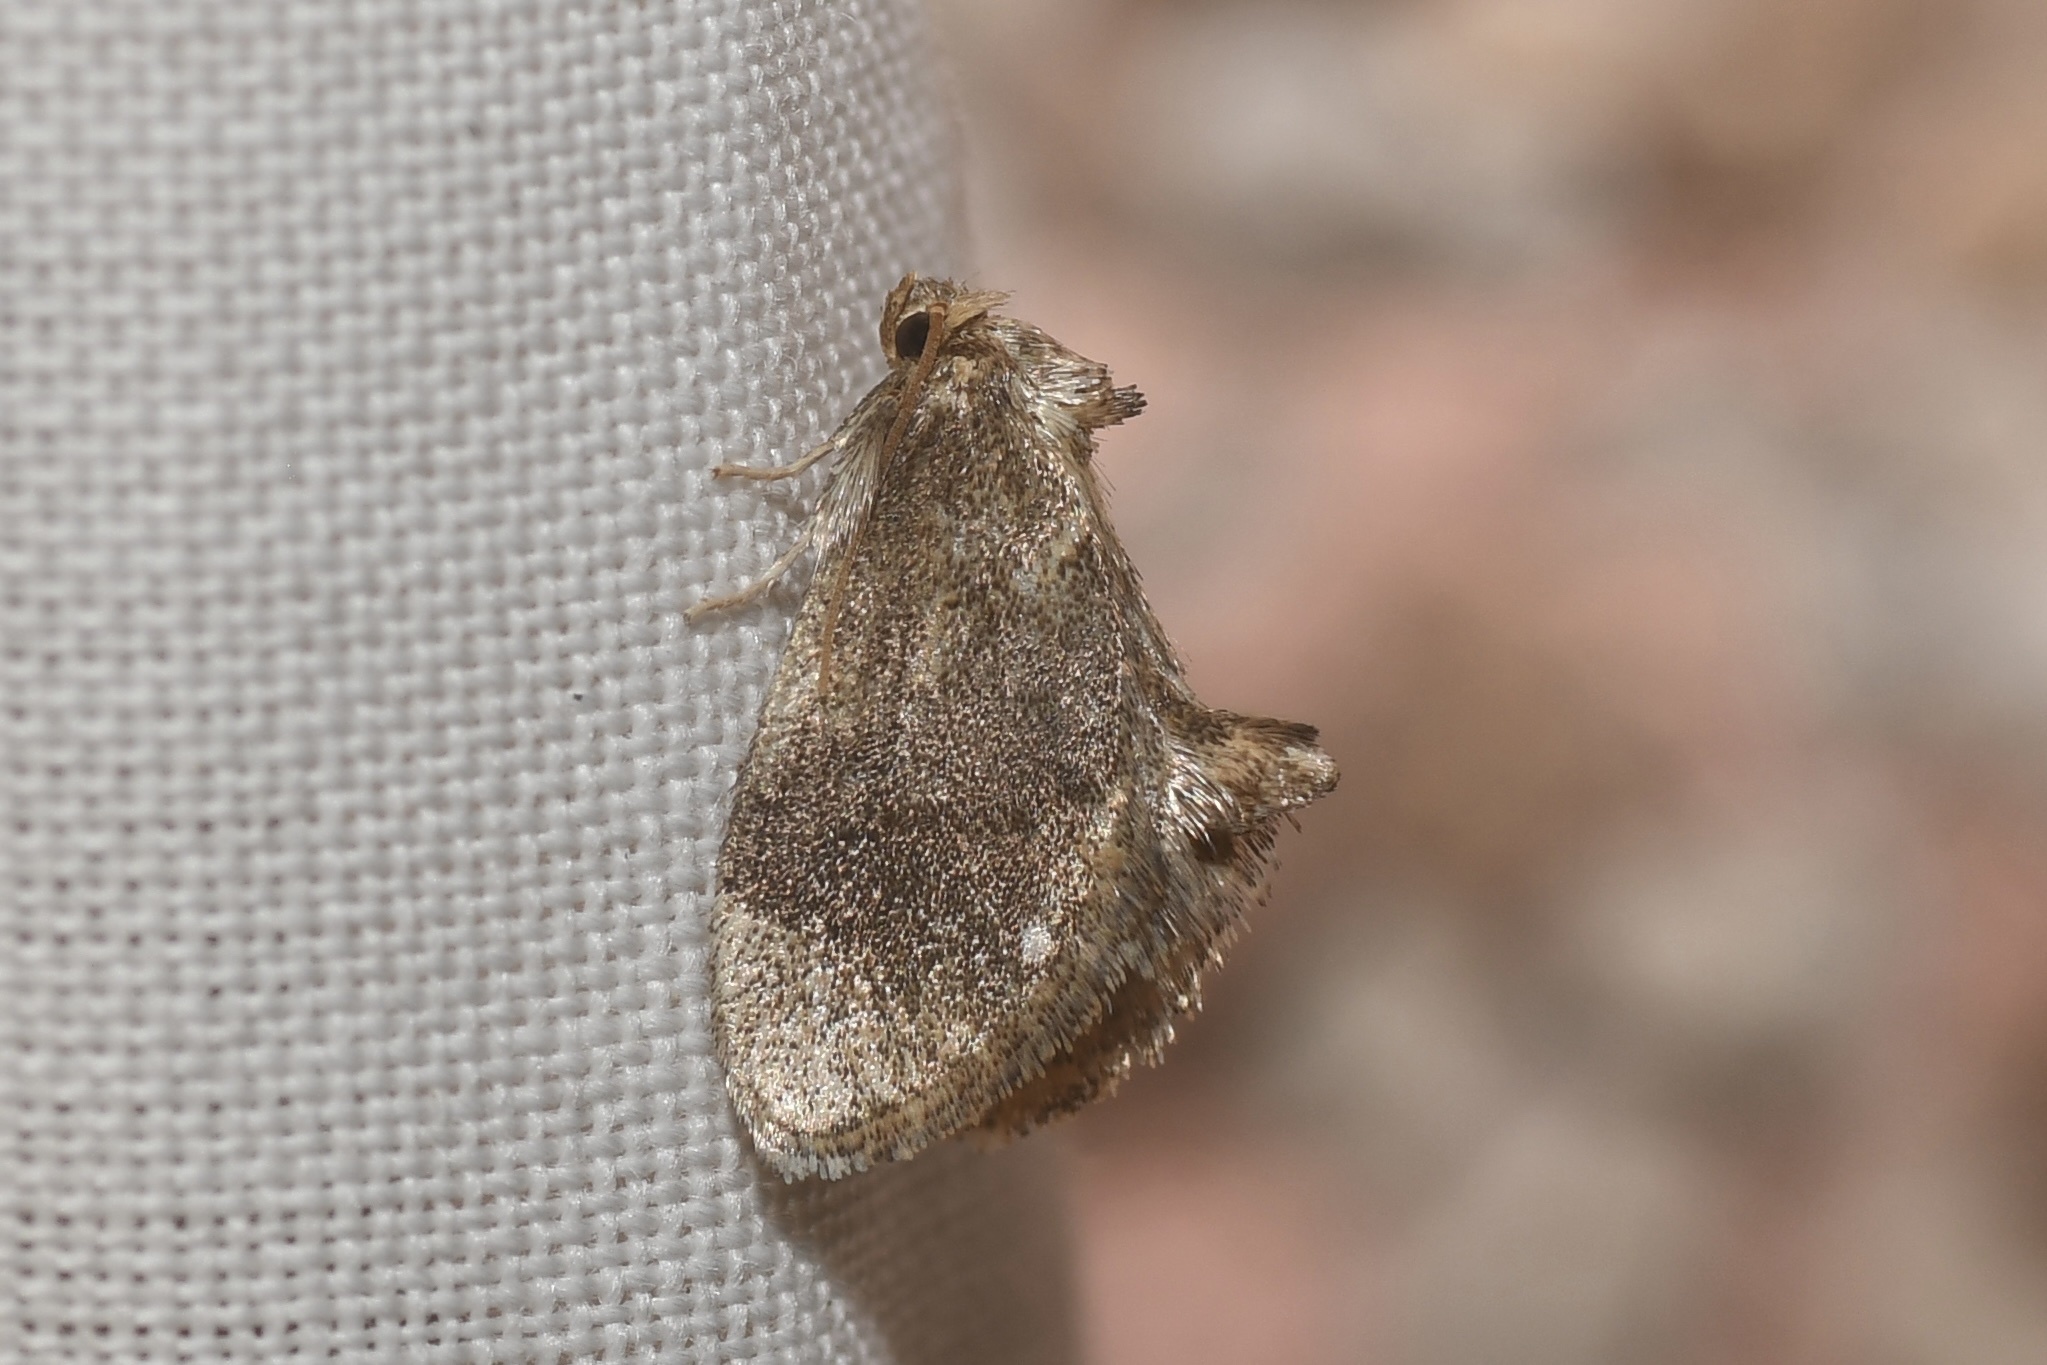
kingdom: Animalia
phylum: Arthropoda
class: Insecta
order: Lepidoptera
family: Limacodidae
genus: Packardia
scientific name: Packardia geminata
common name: Jeweled tailed slug moth
